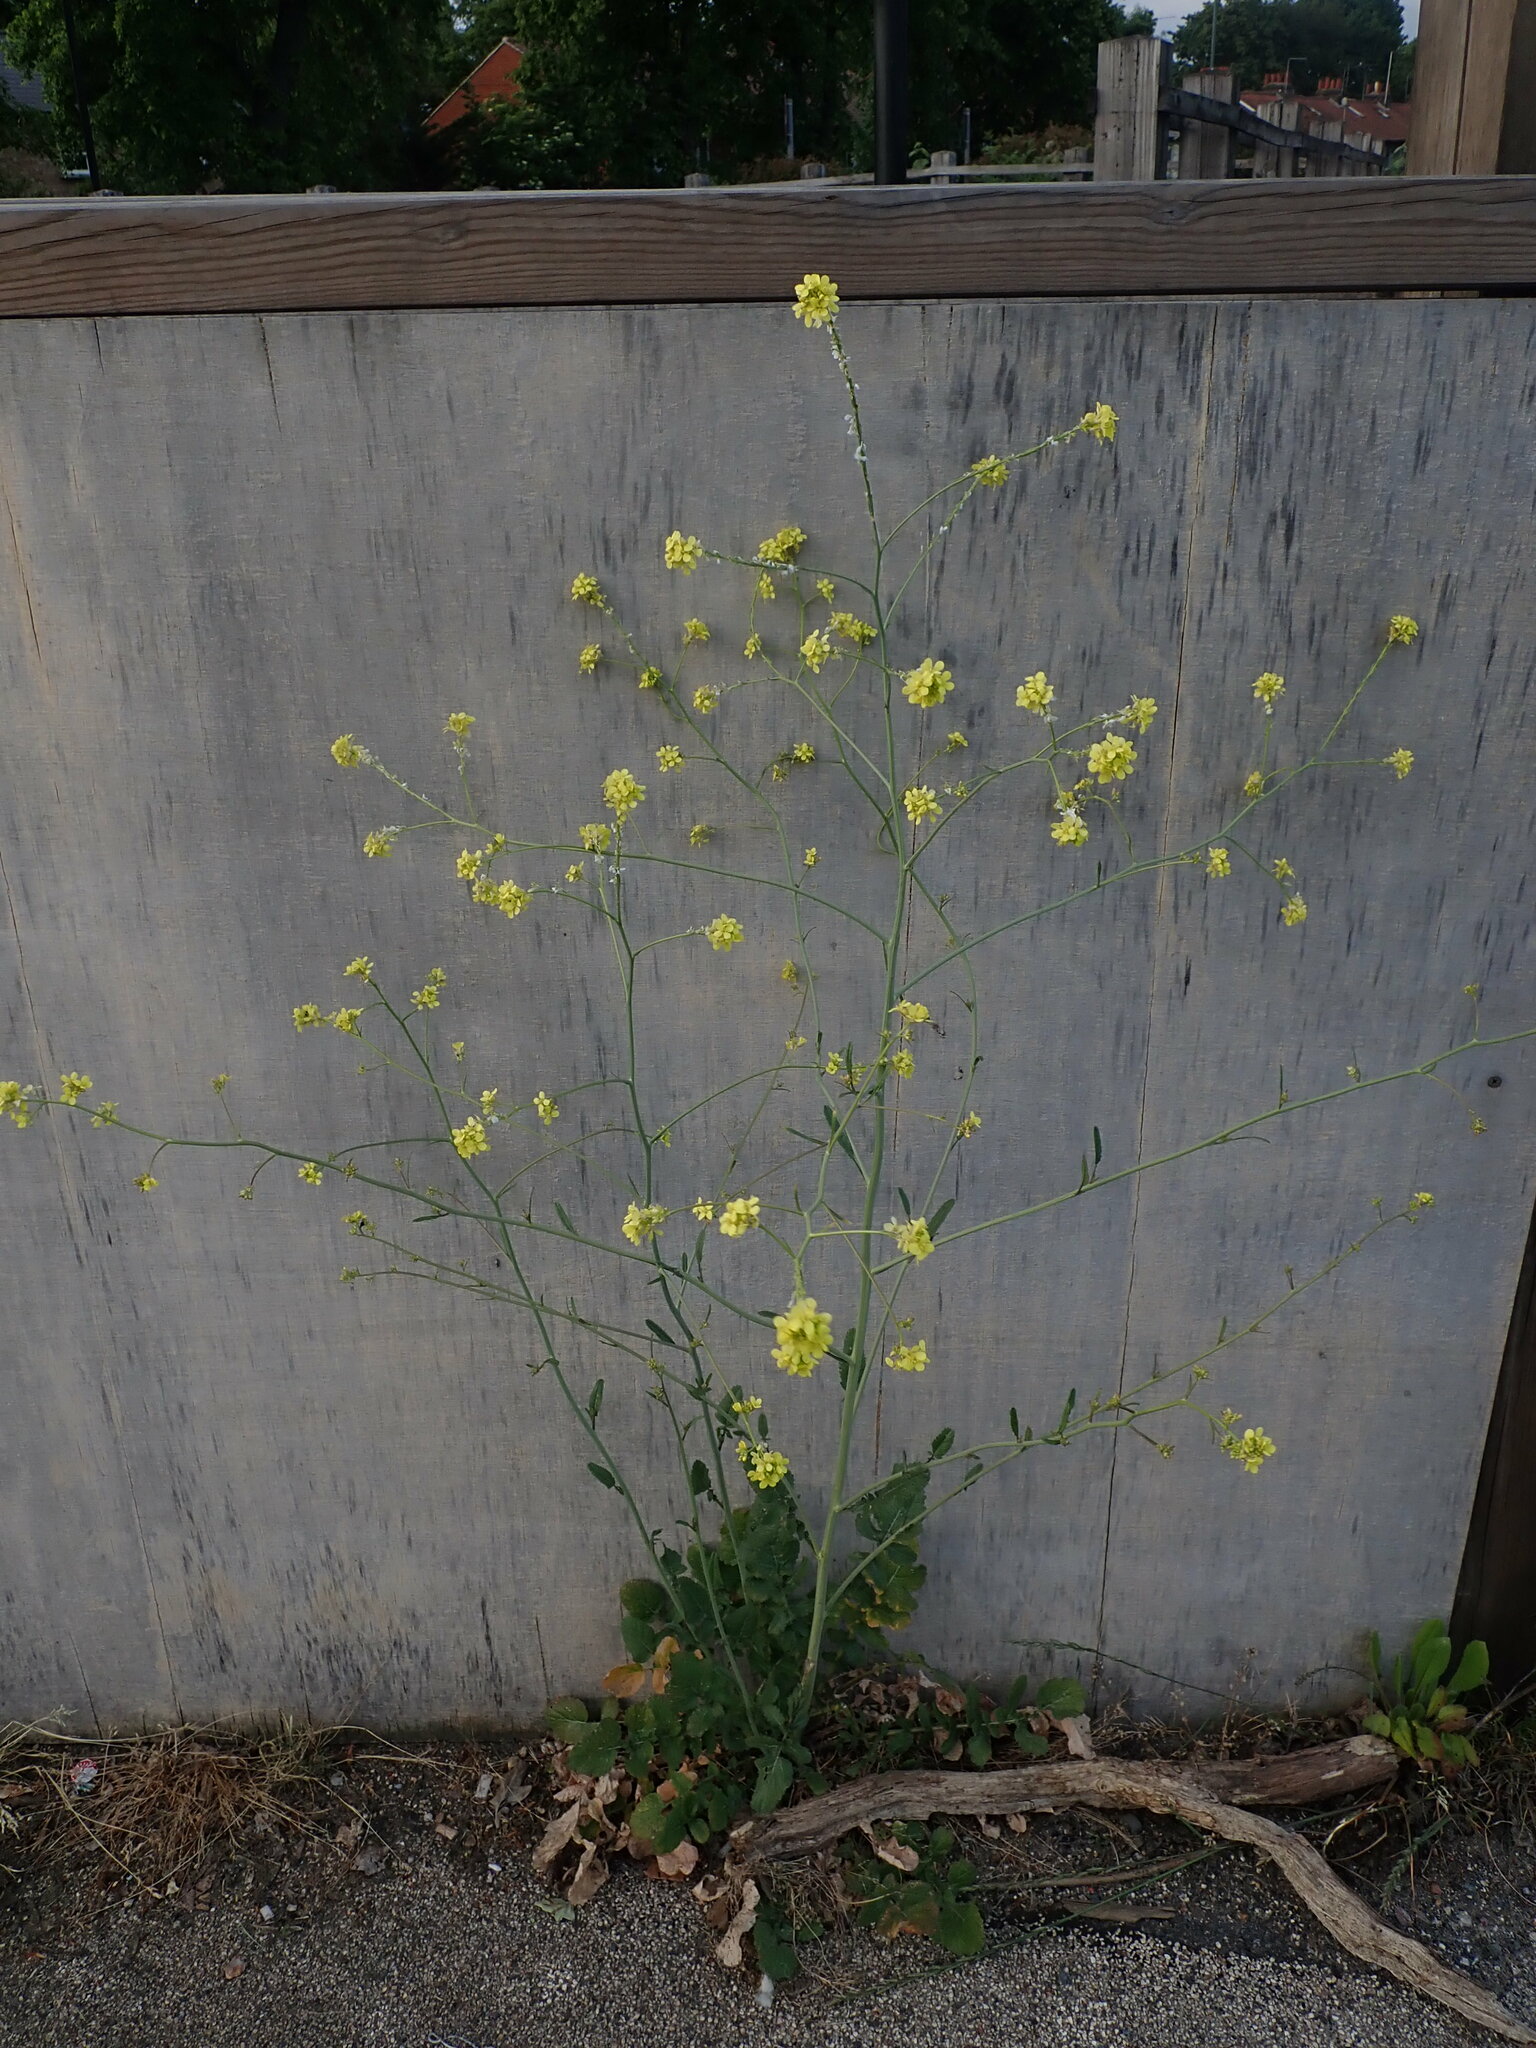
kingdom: Plantae
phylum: Tracheophyta
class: Magnoliopsida
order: Brassicales
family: Brassicaceae
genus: Hirschfeldia
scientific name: Hirschfeldia incana
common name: Hoary mustard
